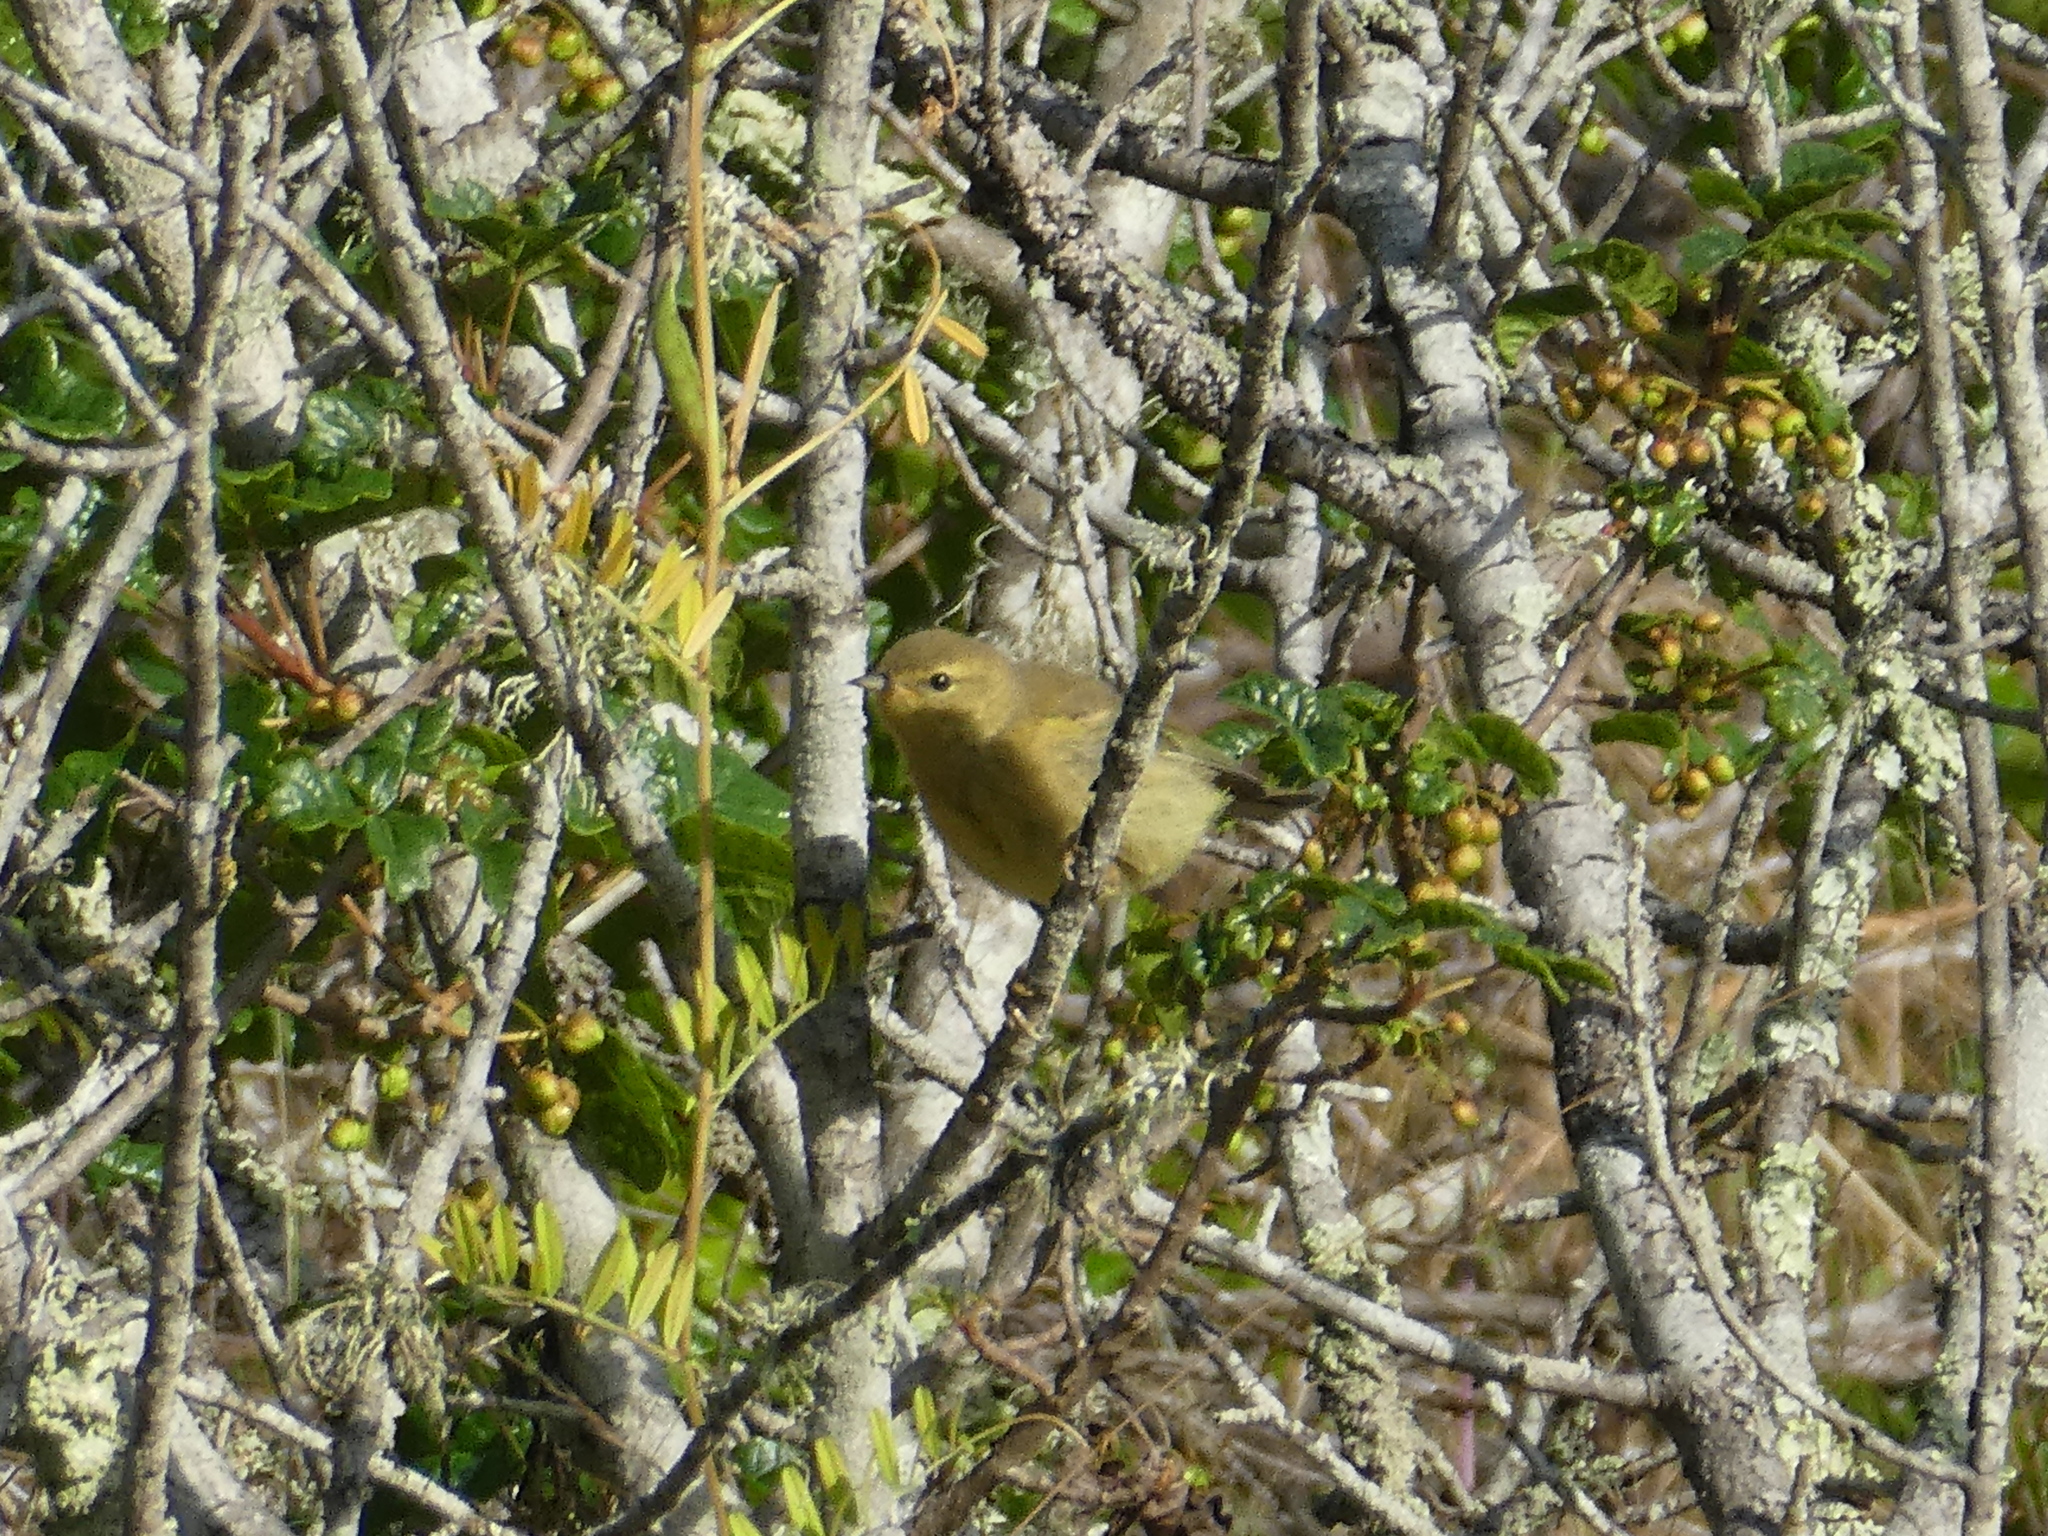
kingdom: Animalia
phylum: Chordata
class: Aves
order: Passeriformes
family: Parulidae
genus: Leiothlypis
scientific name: Leiothlypis celata
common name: Orange-crowned warbler
